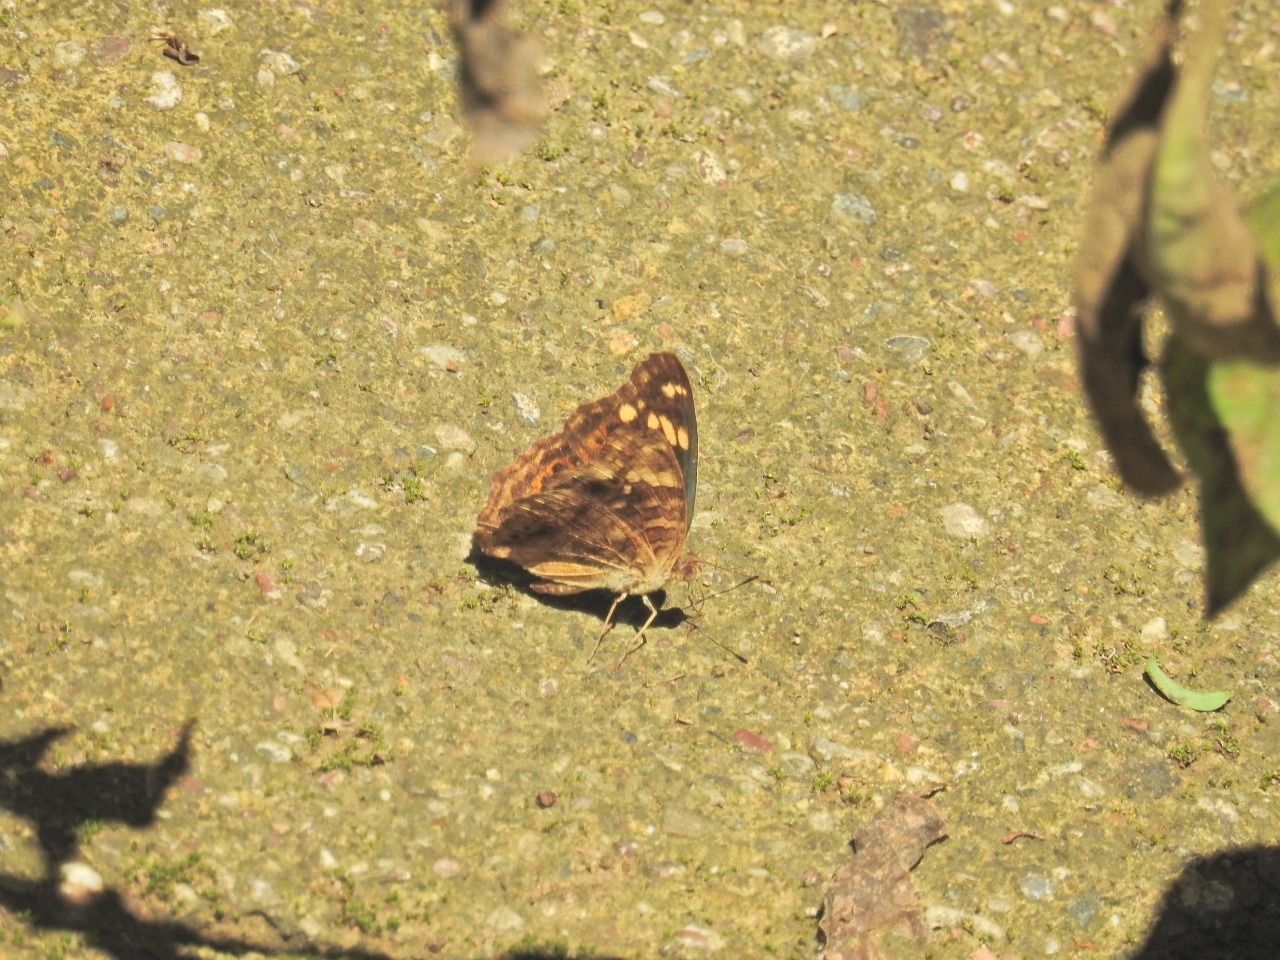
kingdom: Animalia
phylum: Arthropoda
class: Insecta
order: Lepidoptera
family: Nymphalidae
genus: Junonia
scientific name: Junonia erigone
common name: Northern argus
